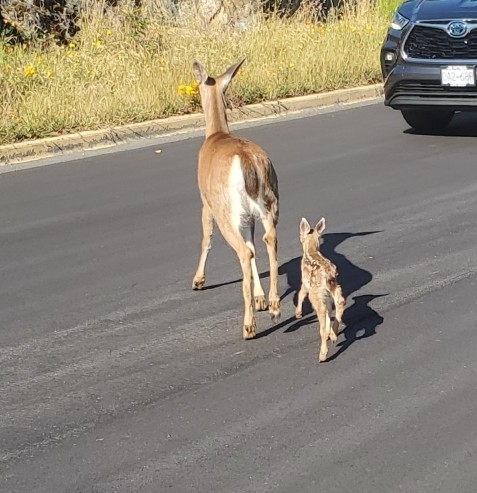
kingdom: Animalia
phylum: Chordata
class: Mammalia
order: Artiodactyla
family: Cervidae
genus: Odocoileus
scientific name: Odocoileus hemionus
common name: Mule deer
